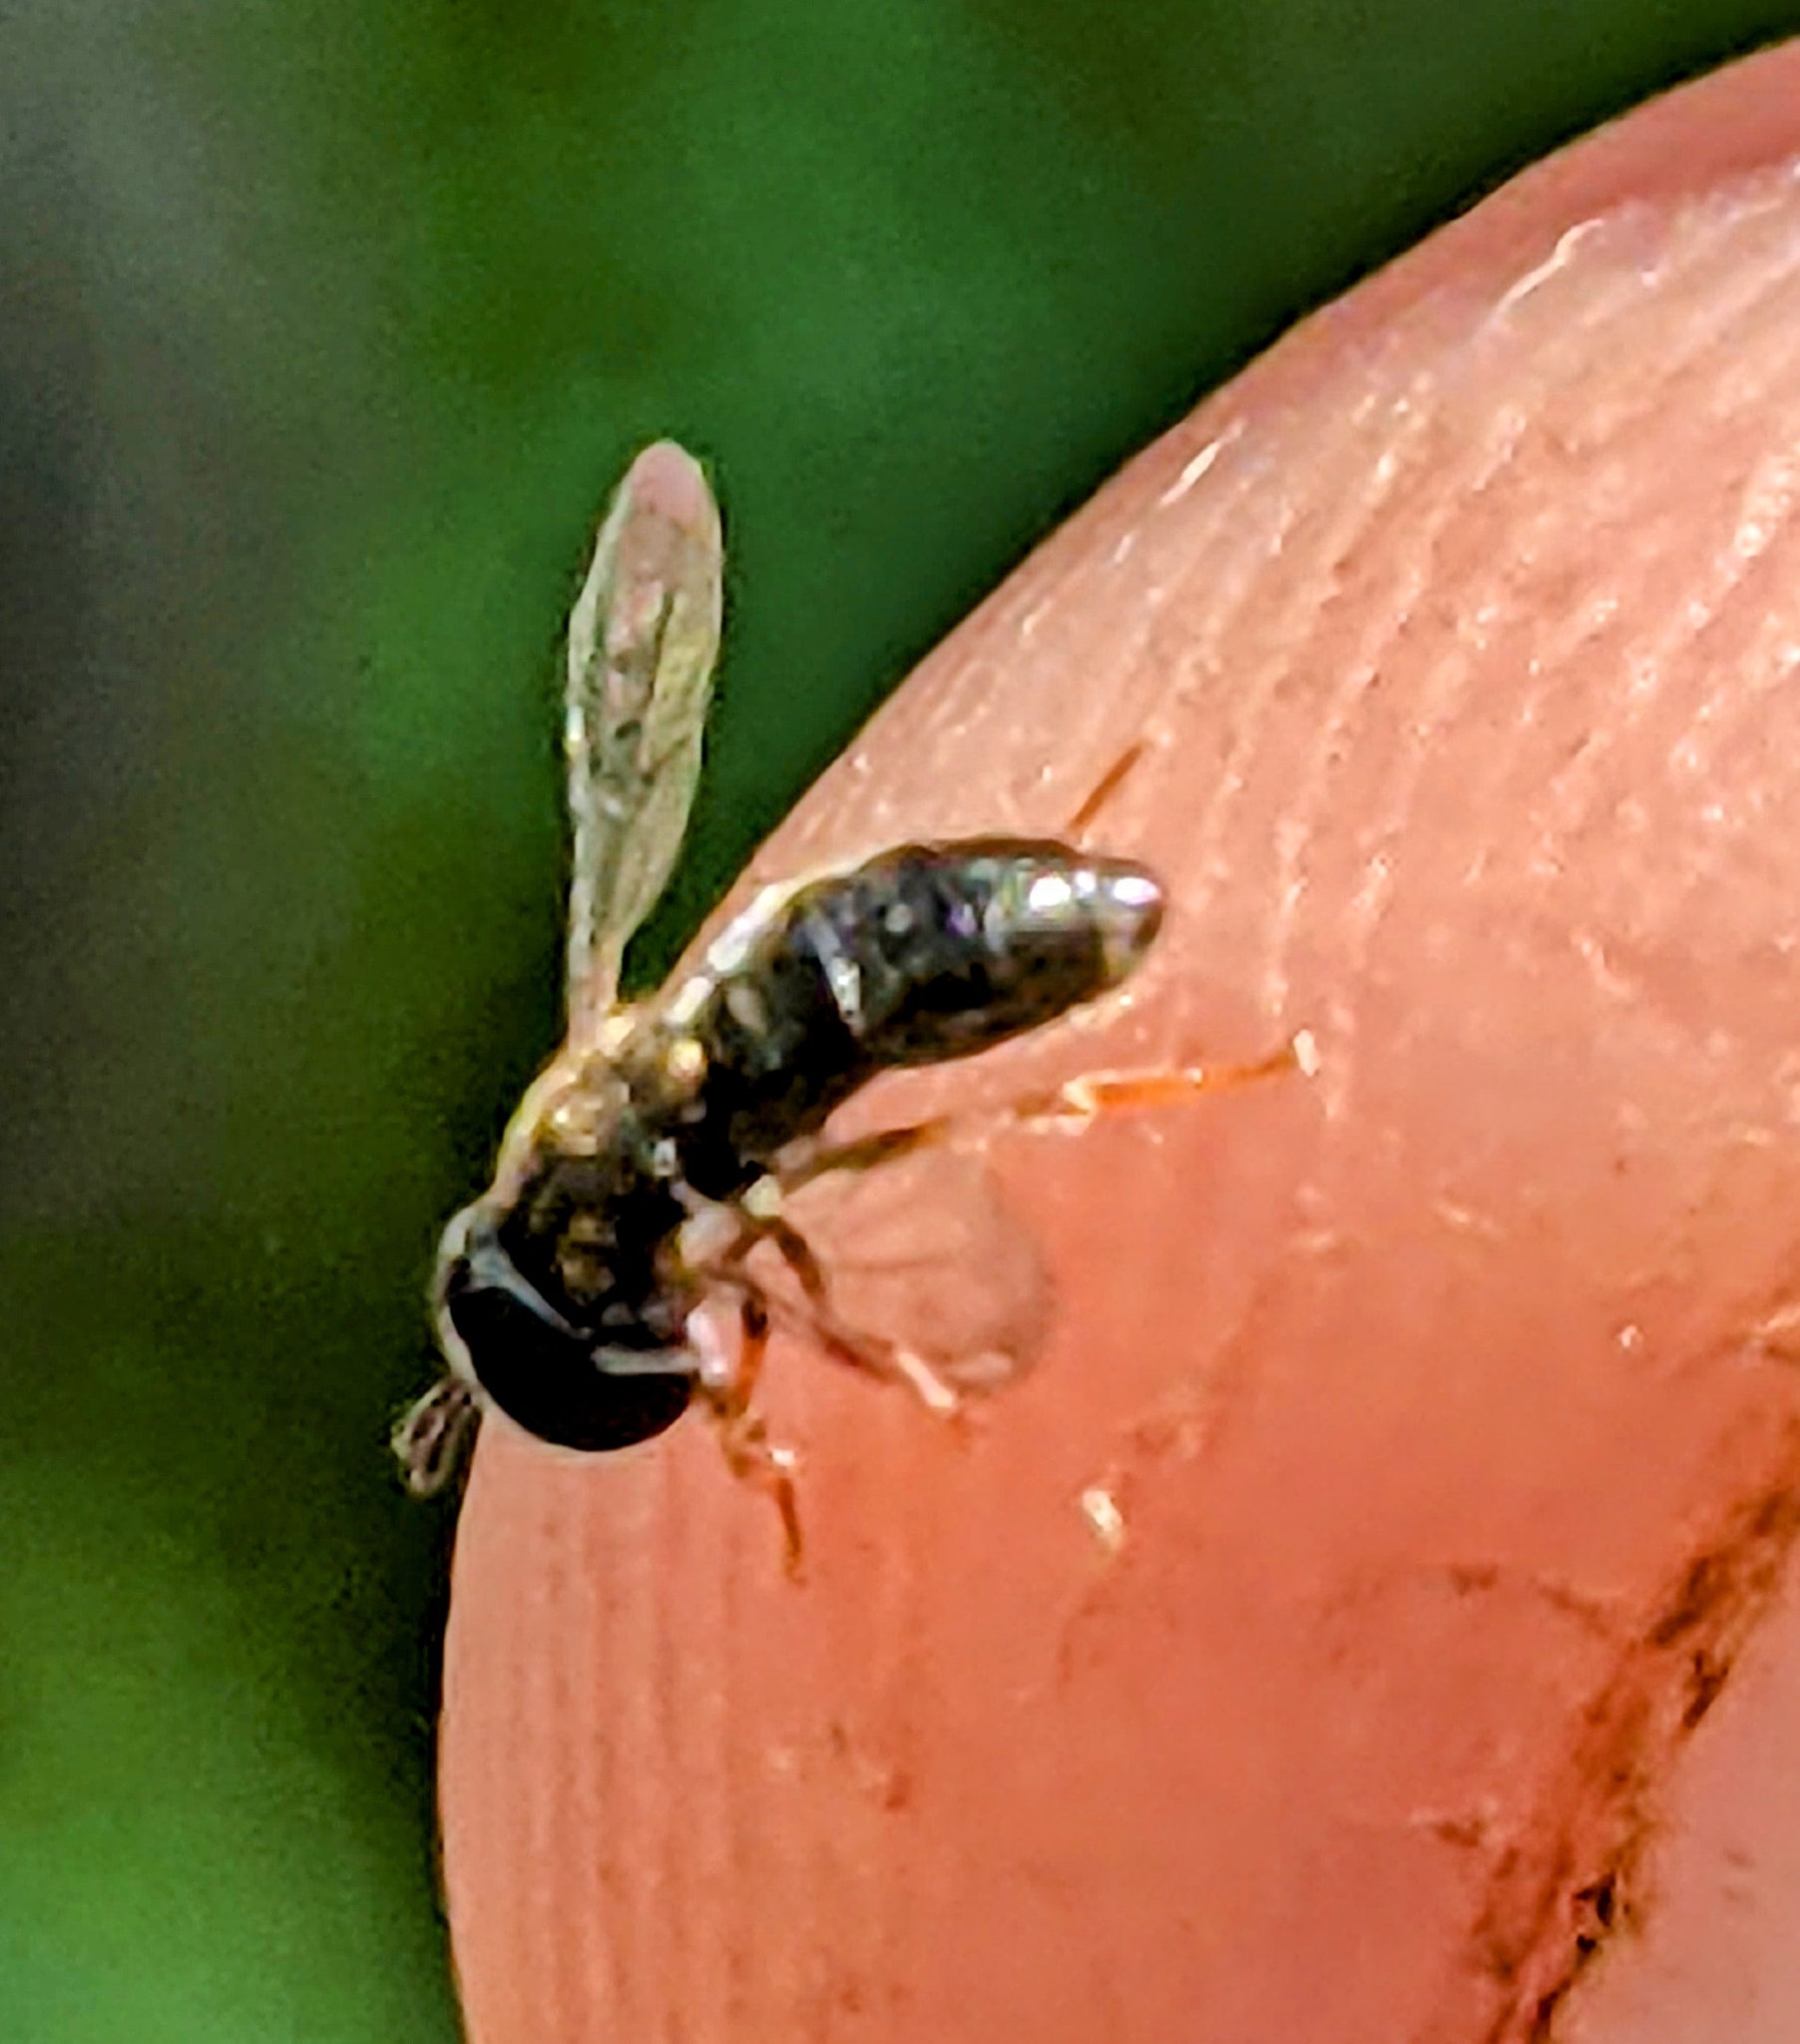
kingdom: Animalia
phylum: Arthropoda
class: Insecta
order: Diptera
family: Syrphidae
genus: Paragus
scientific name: Paragus haemorrhous
